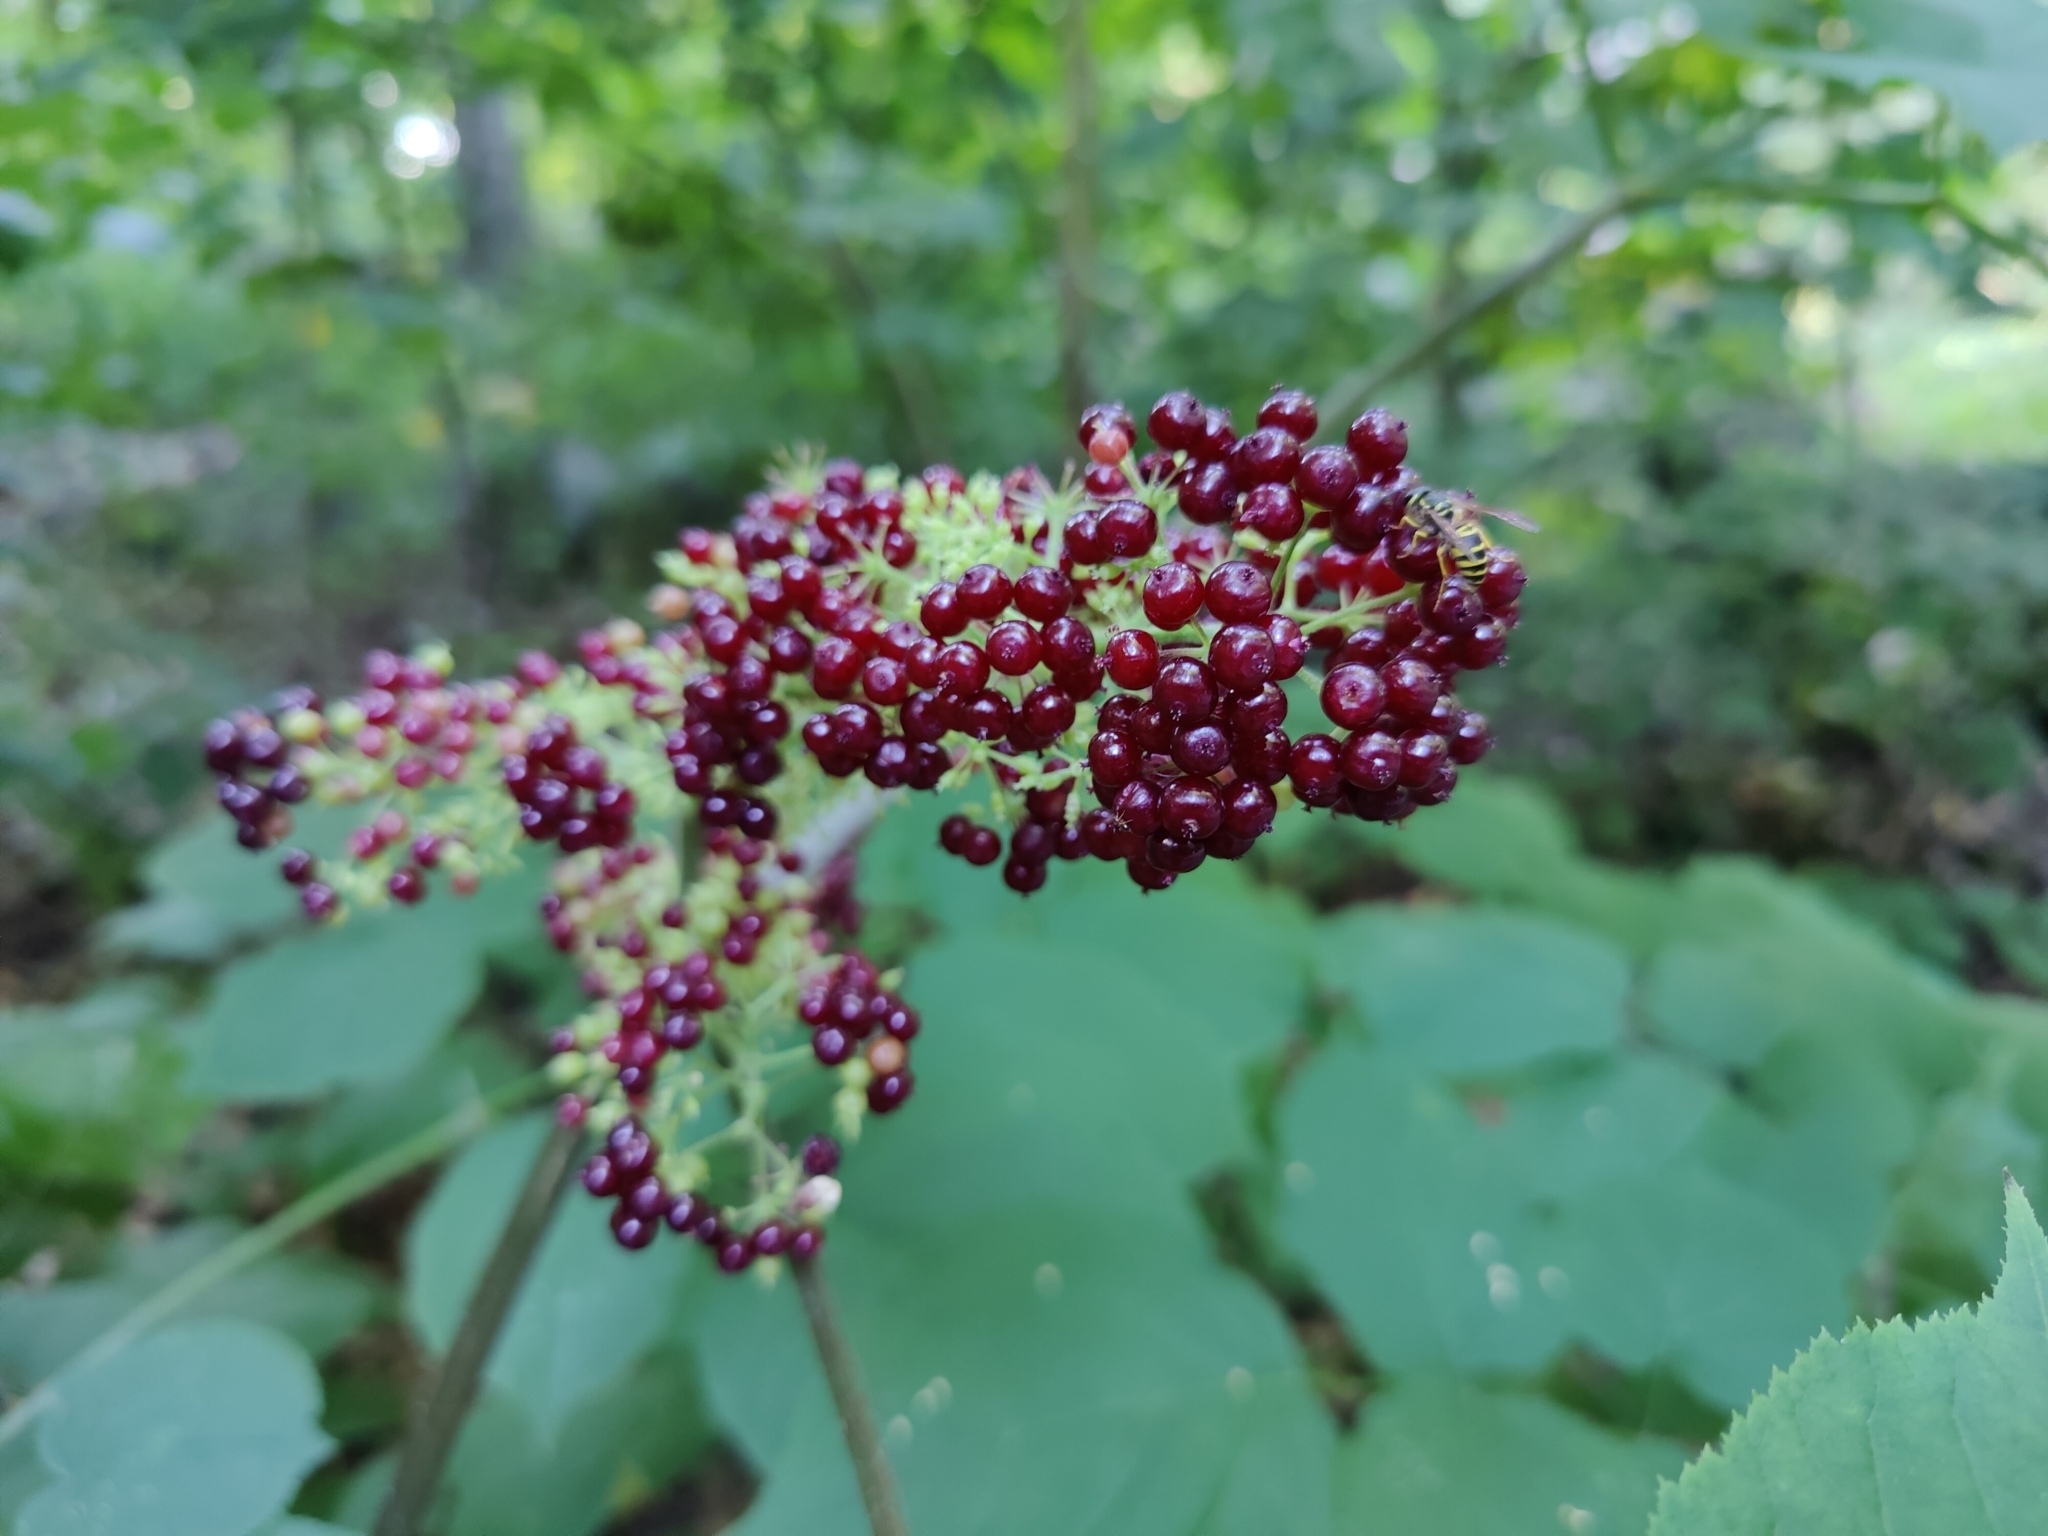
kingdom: Plantae
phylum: Tracheophyta
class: Magnoliopsida
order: Apiales
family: Araliaceae
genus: Aralia
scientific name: Aralia racemosa
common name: American-spikenard
